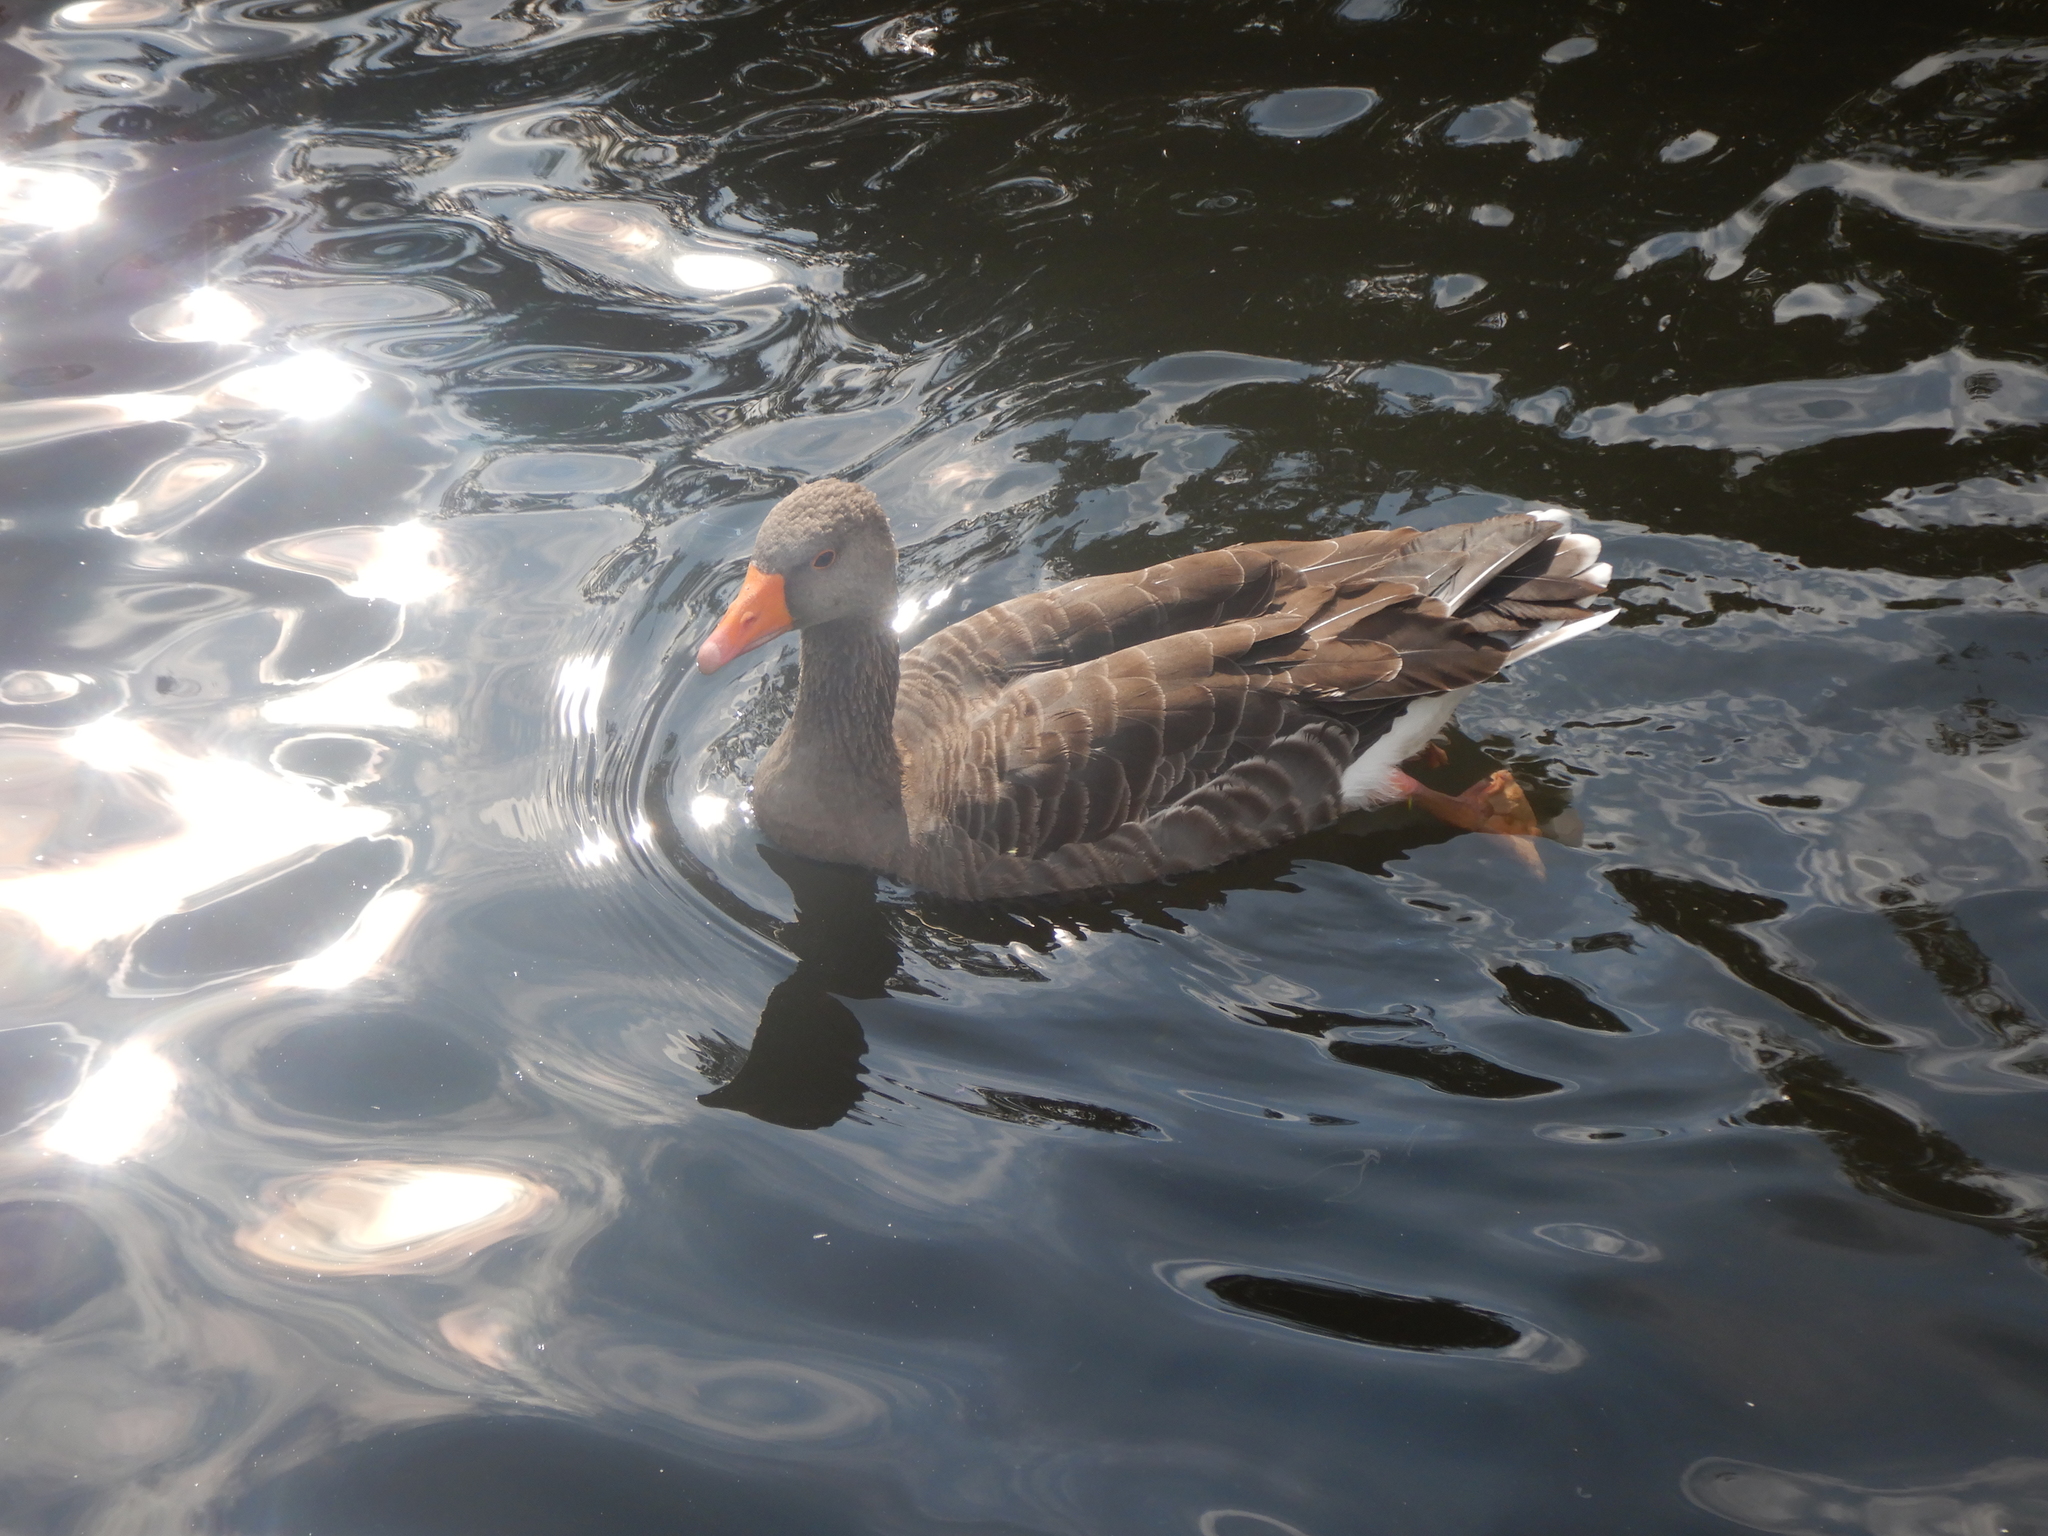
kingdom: Animalia
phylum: Chordata
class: Aves
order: Anseriformes
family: Anatidae
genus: Anser
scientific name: Anser anser
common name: Greylag goose
